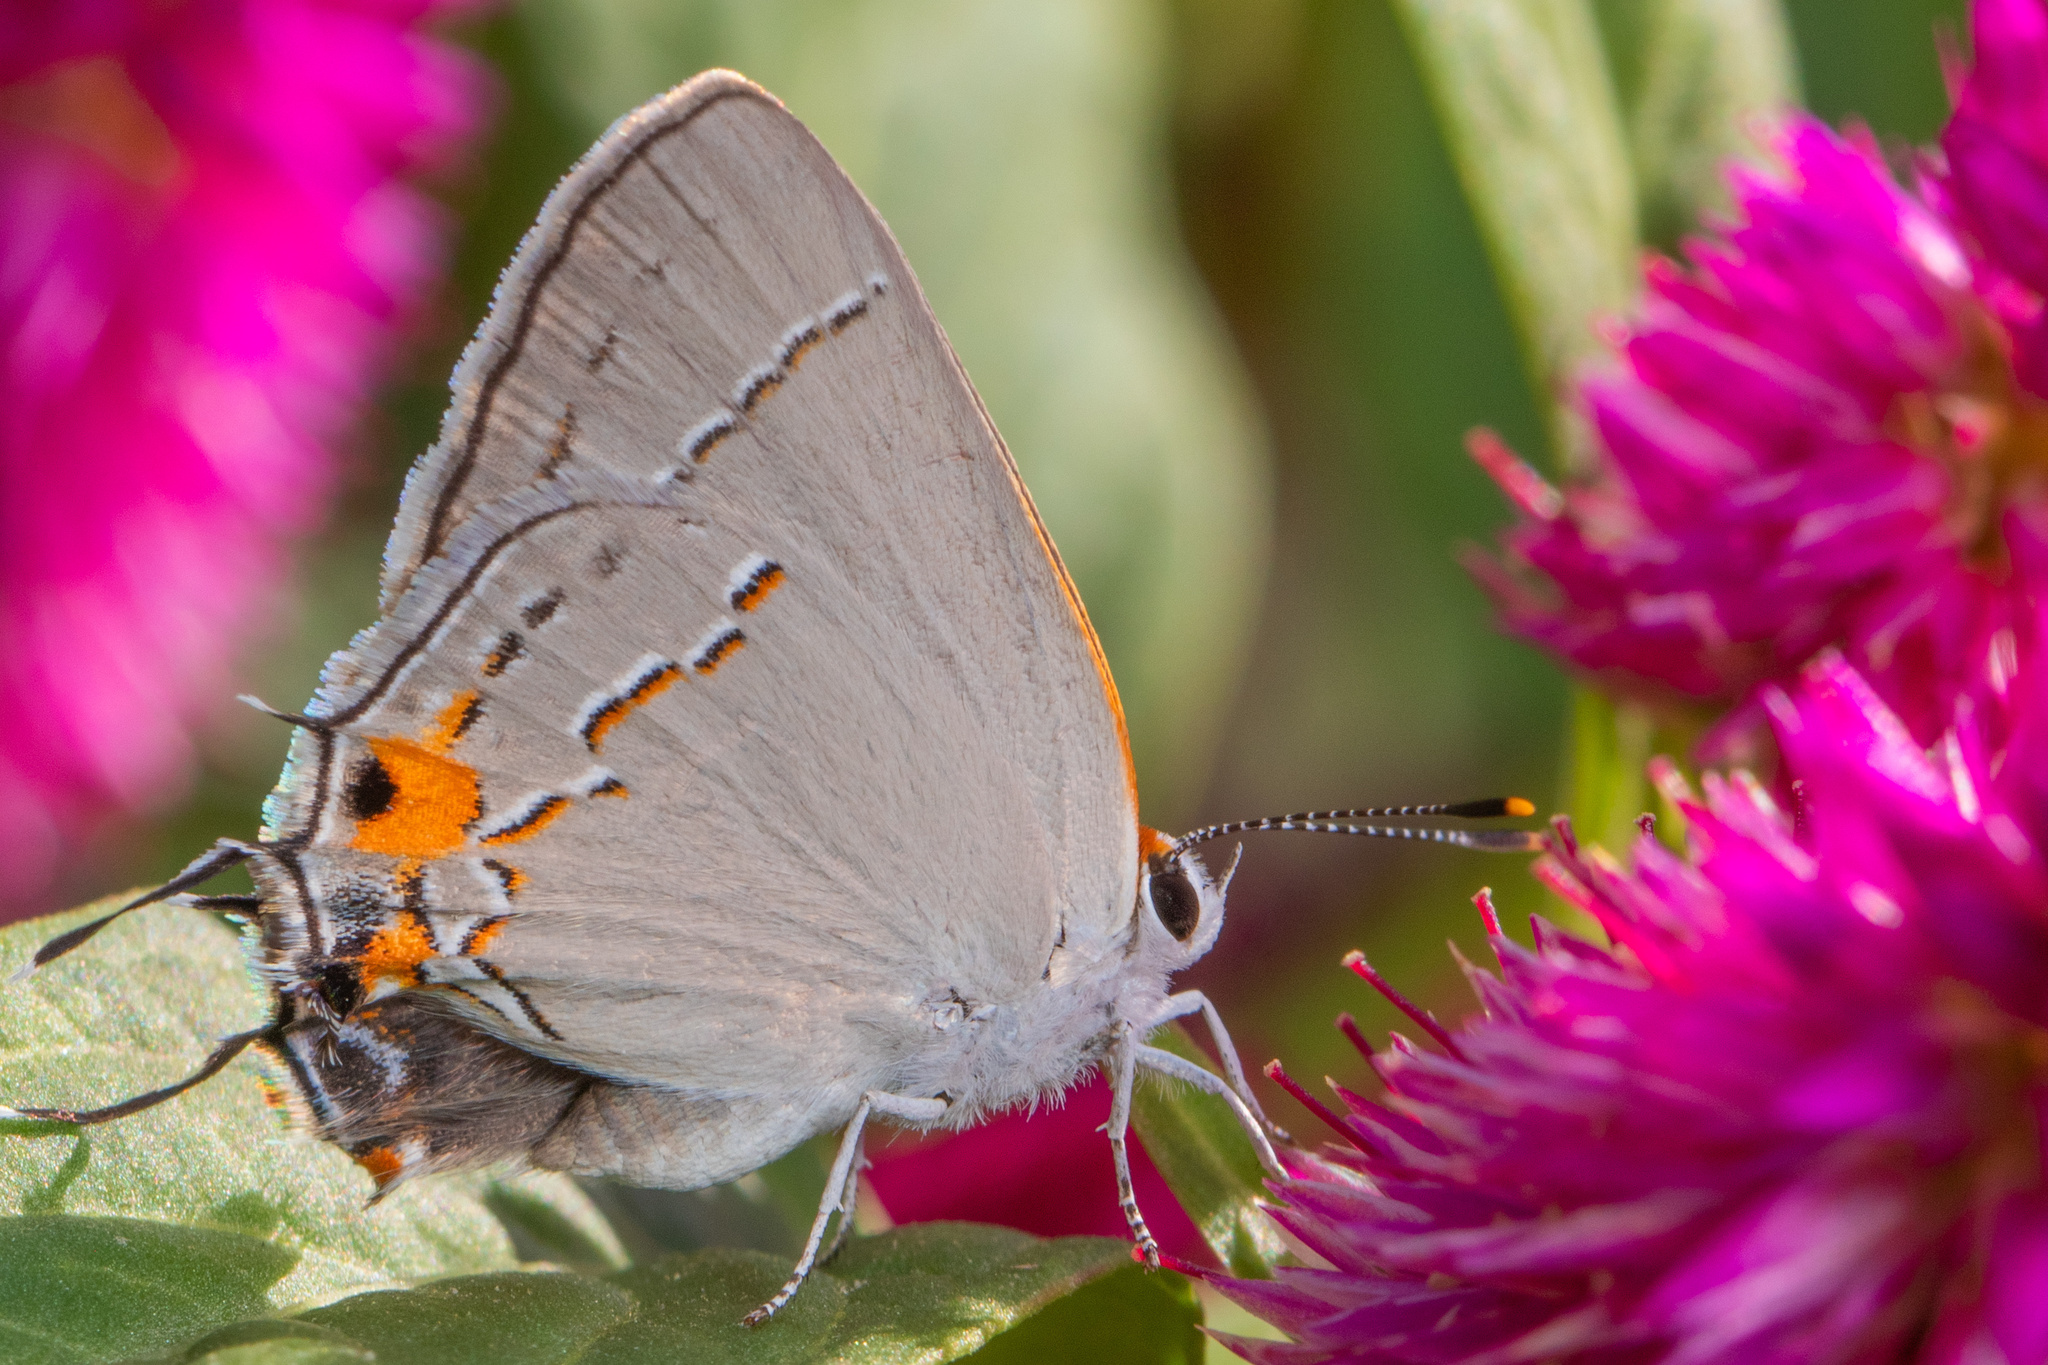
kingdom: Animalia
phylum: Arthropoda
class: Insecta
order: Lepidoptera
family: Lycaenidae
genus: Strymon
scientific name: Strymon melinus
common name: Gray hairstreak
